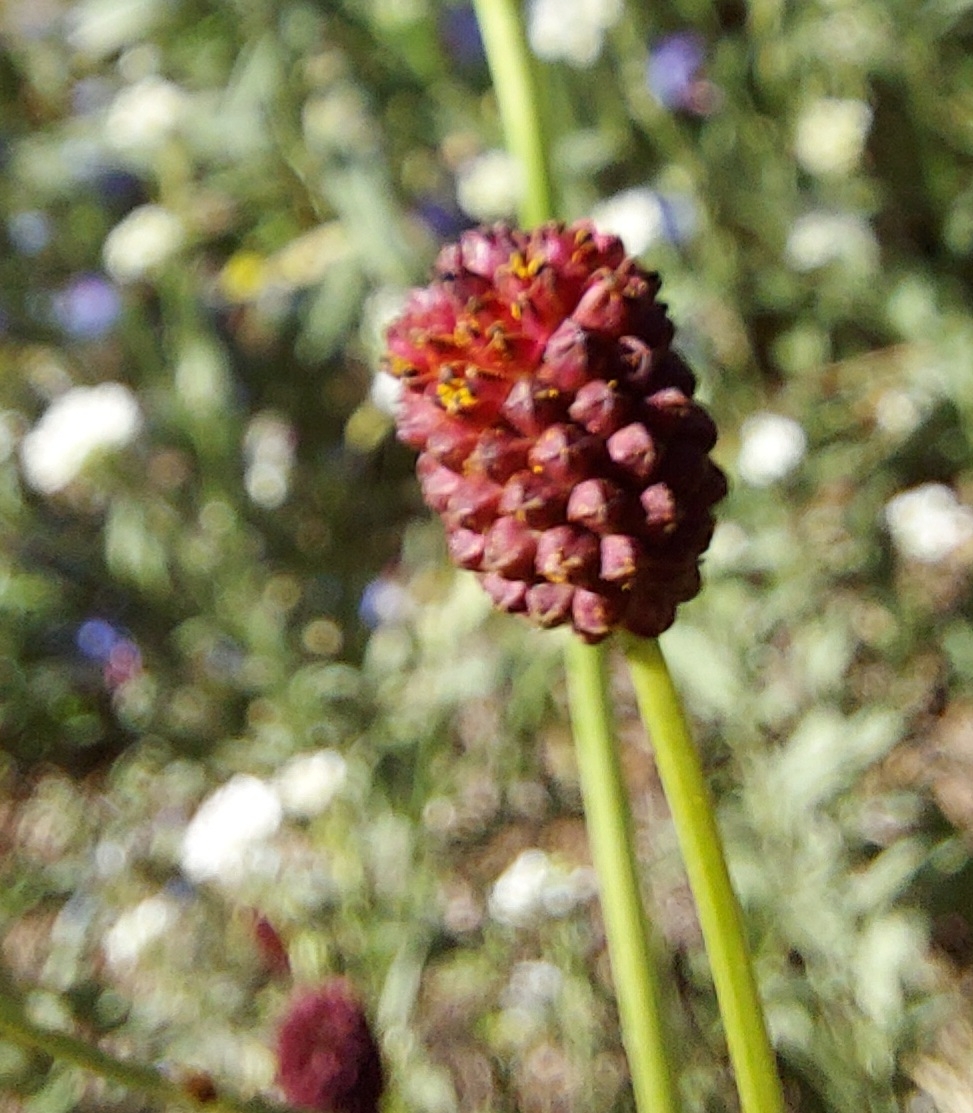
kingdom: Plantae
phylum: Tracheophyta
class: Magnoliopsida
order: Rosales
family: Rosaceae
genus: Sanguisorba
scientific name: Sanguisorba officinalis
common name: Great burnet
